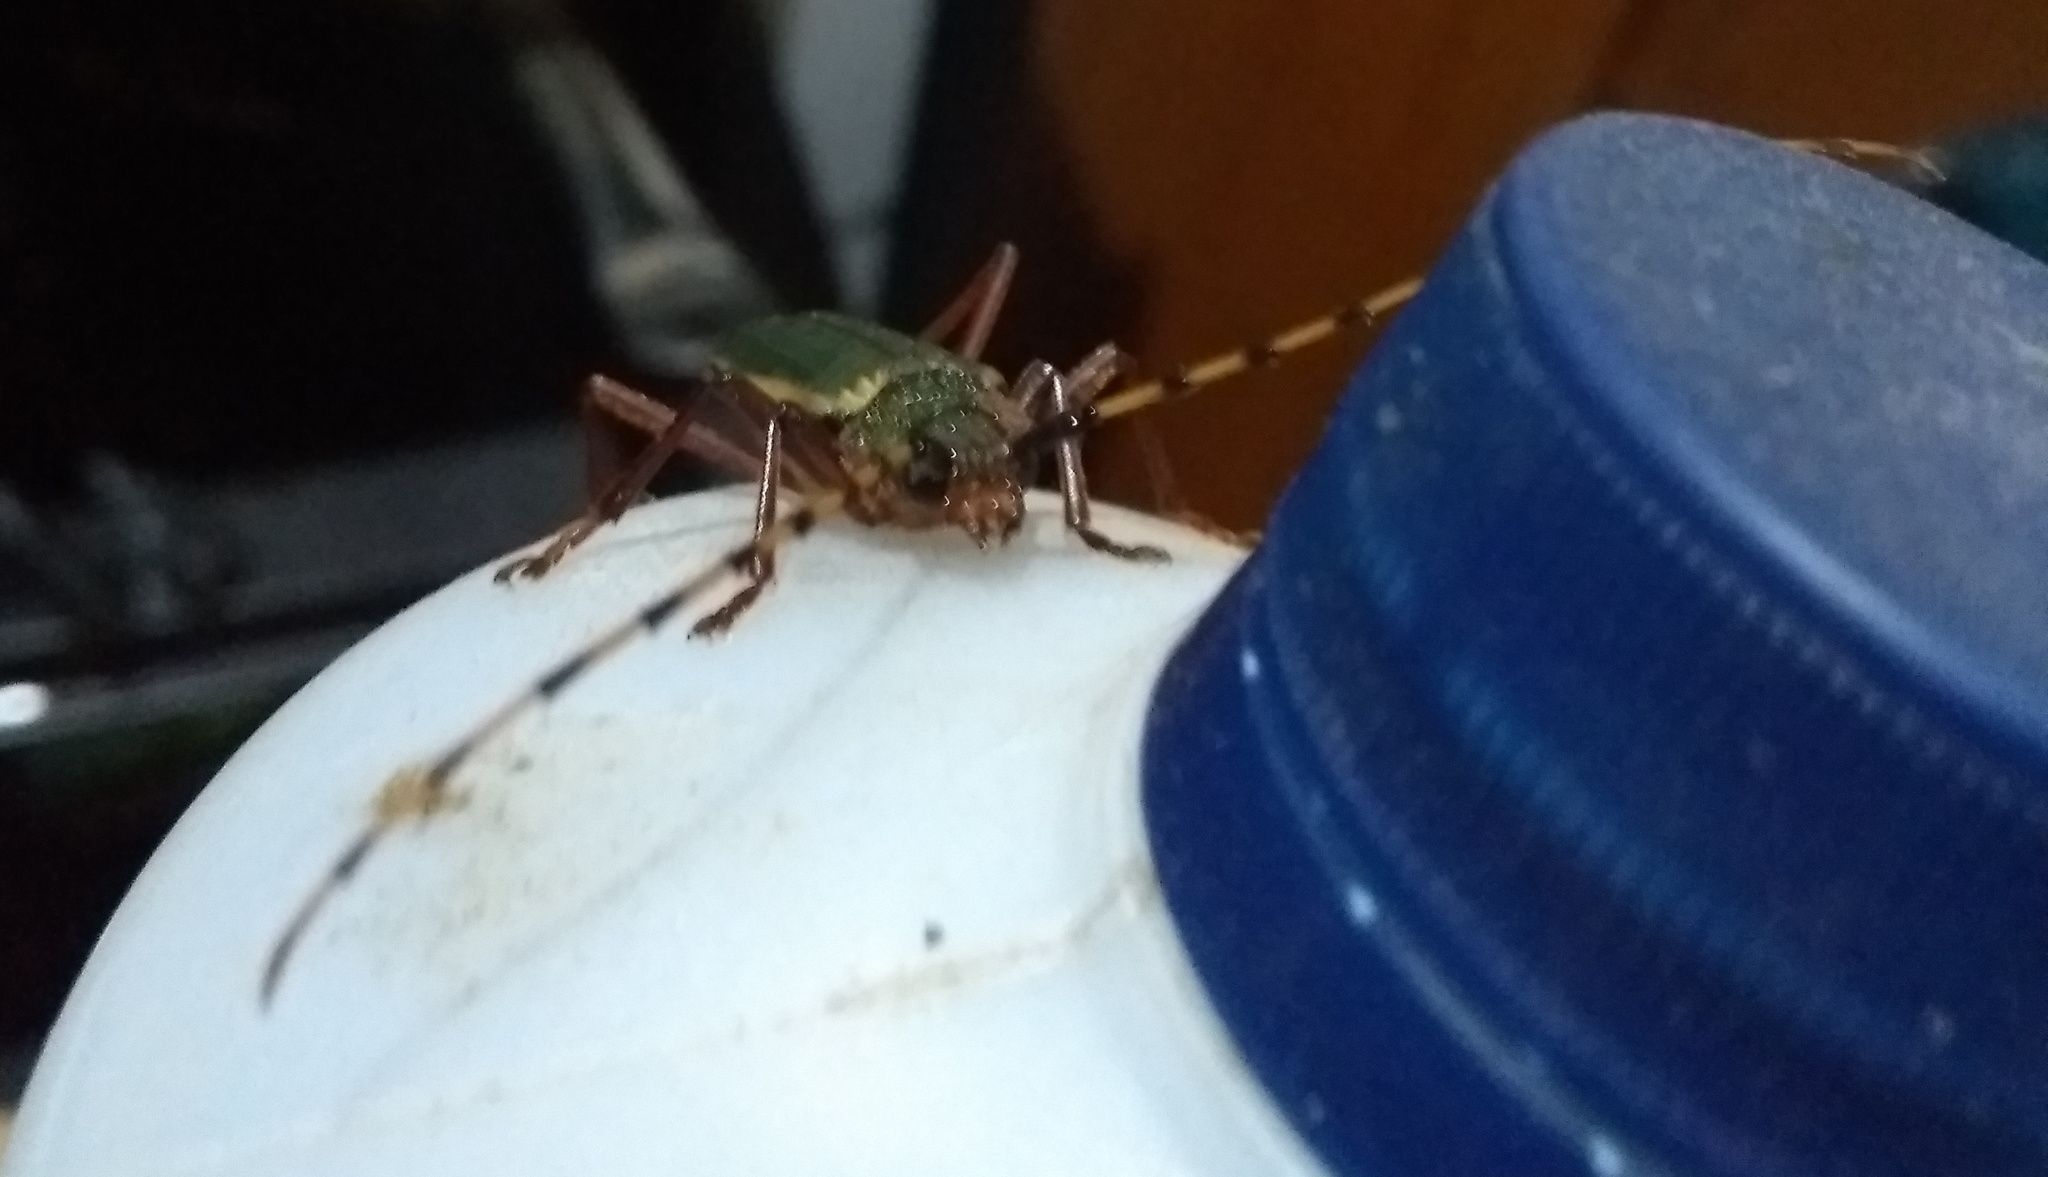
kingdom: Animalia
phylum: Arthropoda
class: Insecta
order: Coleoptera
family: Cerambycidae
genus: Chlorida
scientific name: Chlorida costata
